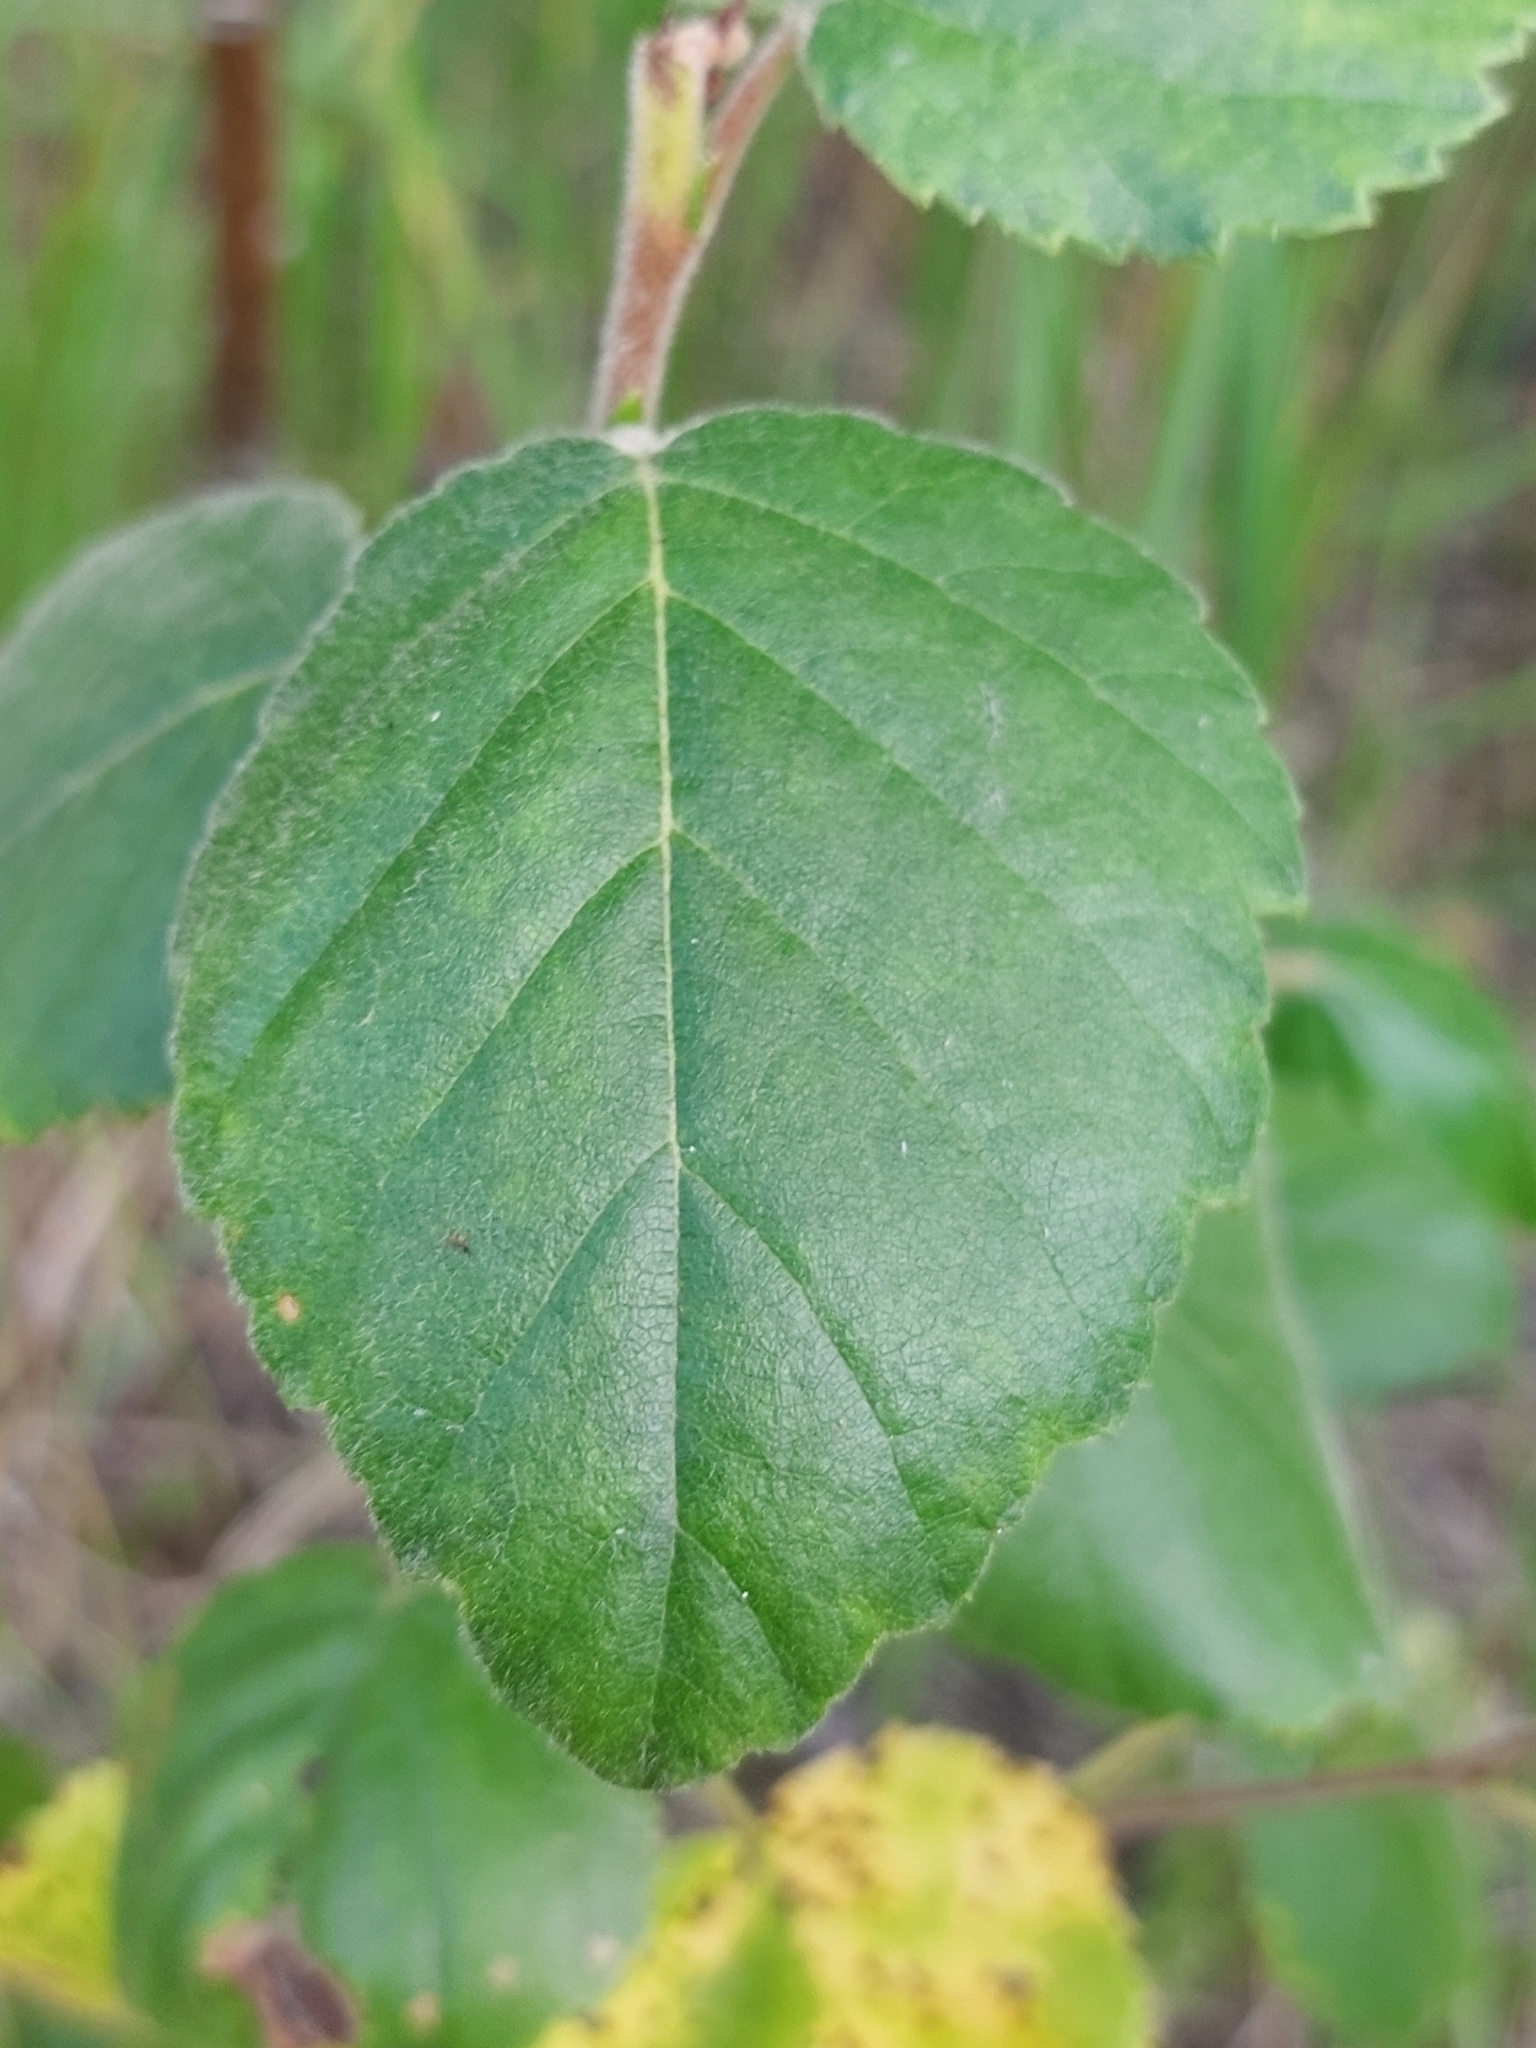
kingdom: Plantae
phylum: Tracheophyta
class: Magnoliopsida
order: Fagales
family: Betulaceae
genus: Betula
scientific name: Betula pubescens
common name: Downy birch
